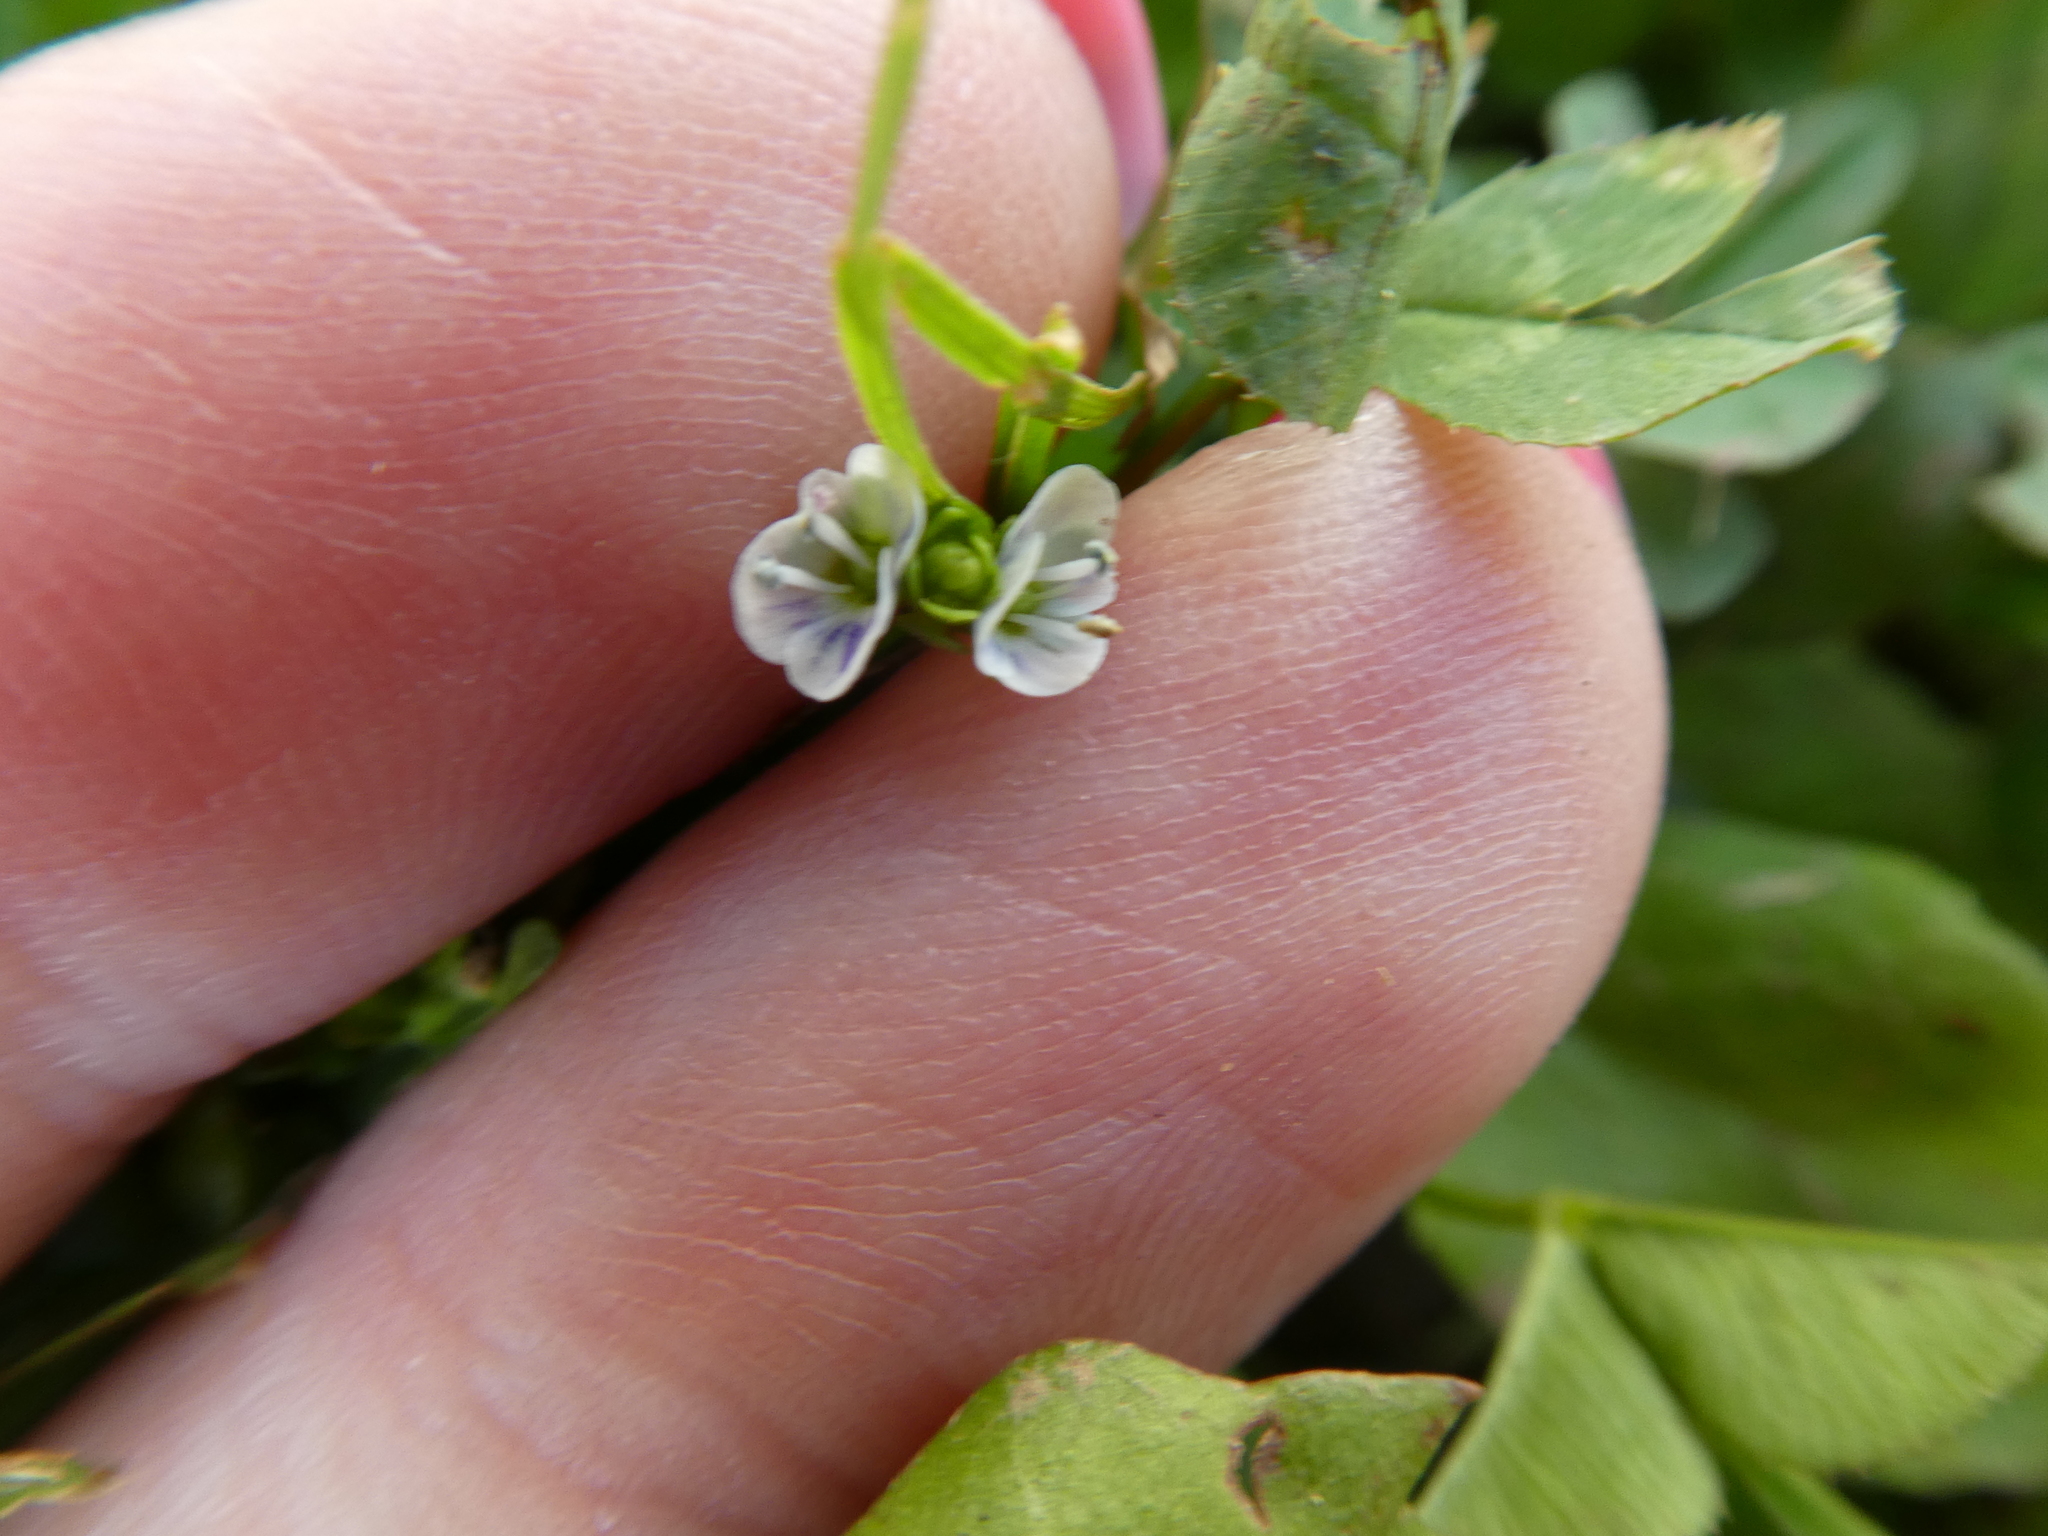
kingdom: Plantae
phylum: Tracheophyta
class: Magnoliopsida
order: Lamiales
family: Plantaginaceae
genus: Veronica
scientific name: Veronica serpyllifolia
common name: Thyme-leaved speedwell
